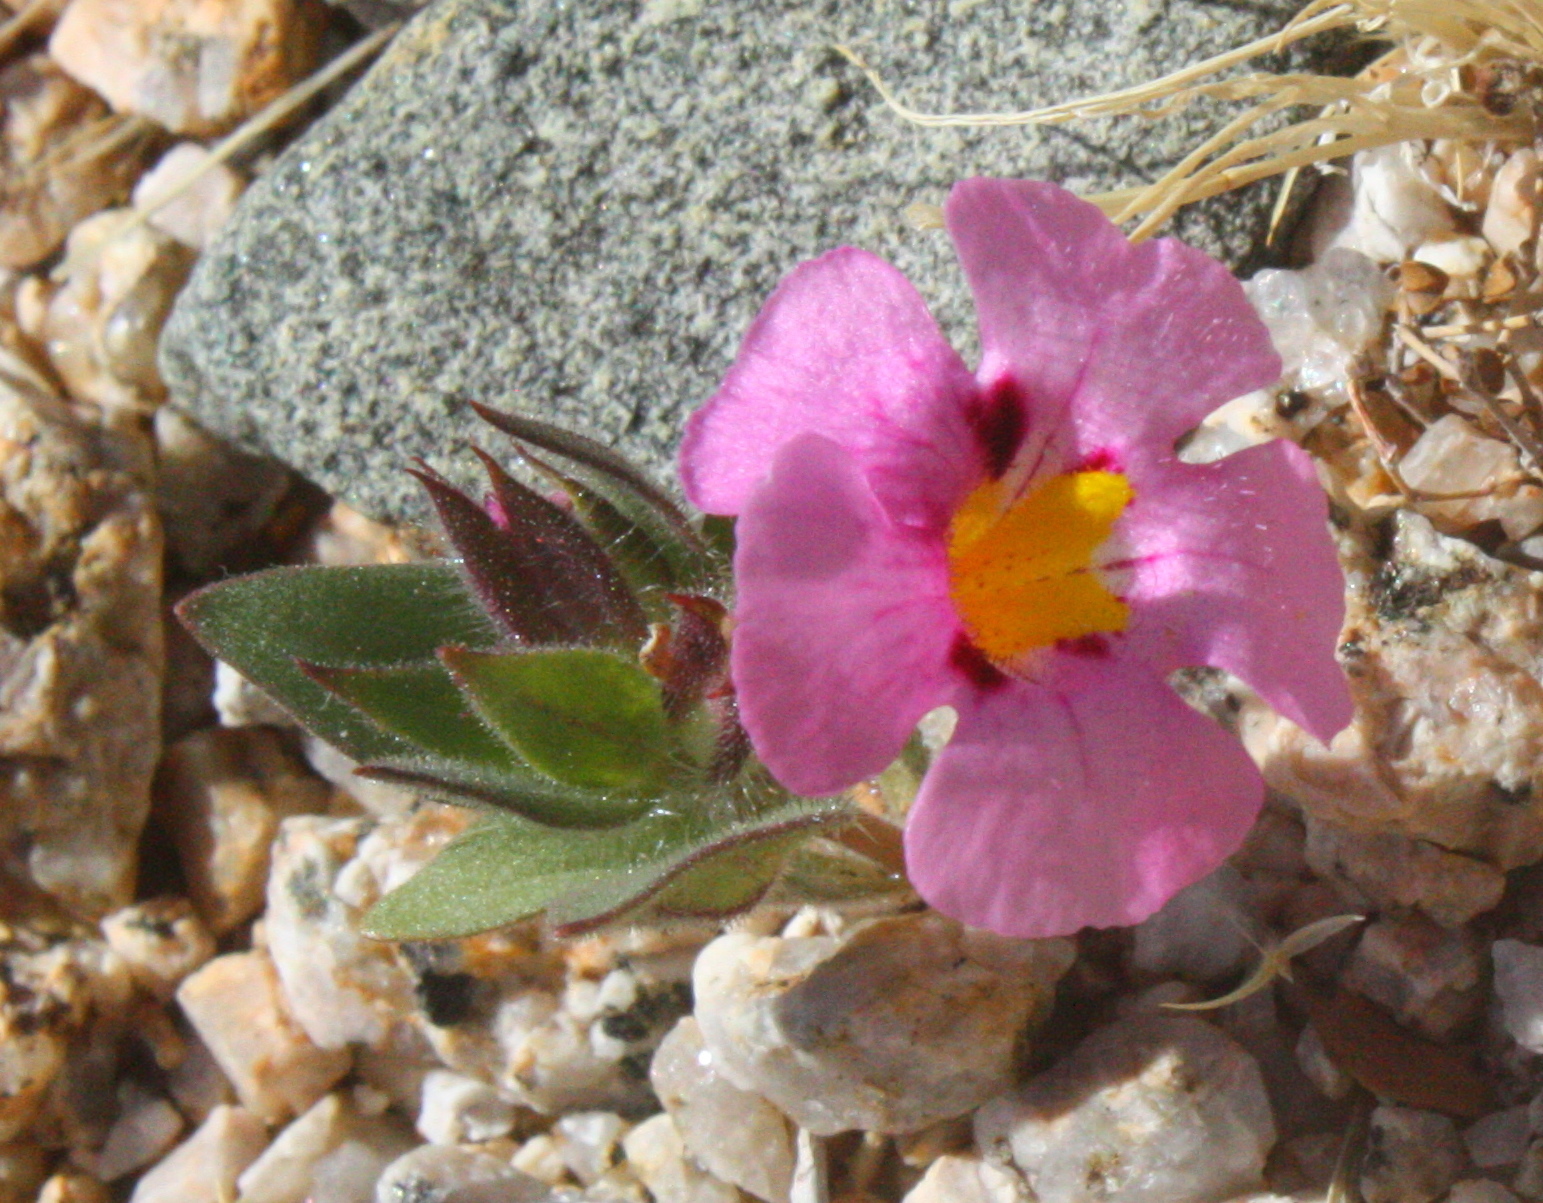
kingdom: Plantae
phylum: Tracheophyta
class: Magnoliopsida
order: Lamiales
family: Phrymaceae
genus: Diplacus
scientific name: Diplacus bigelovii
